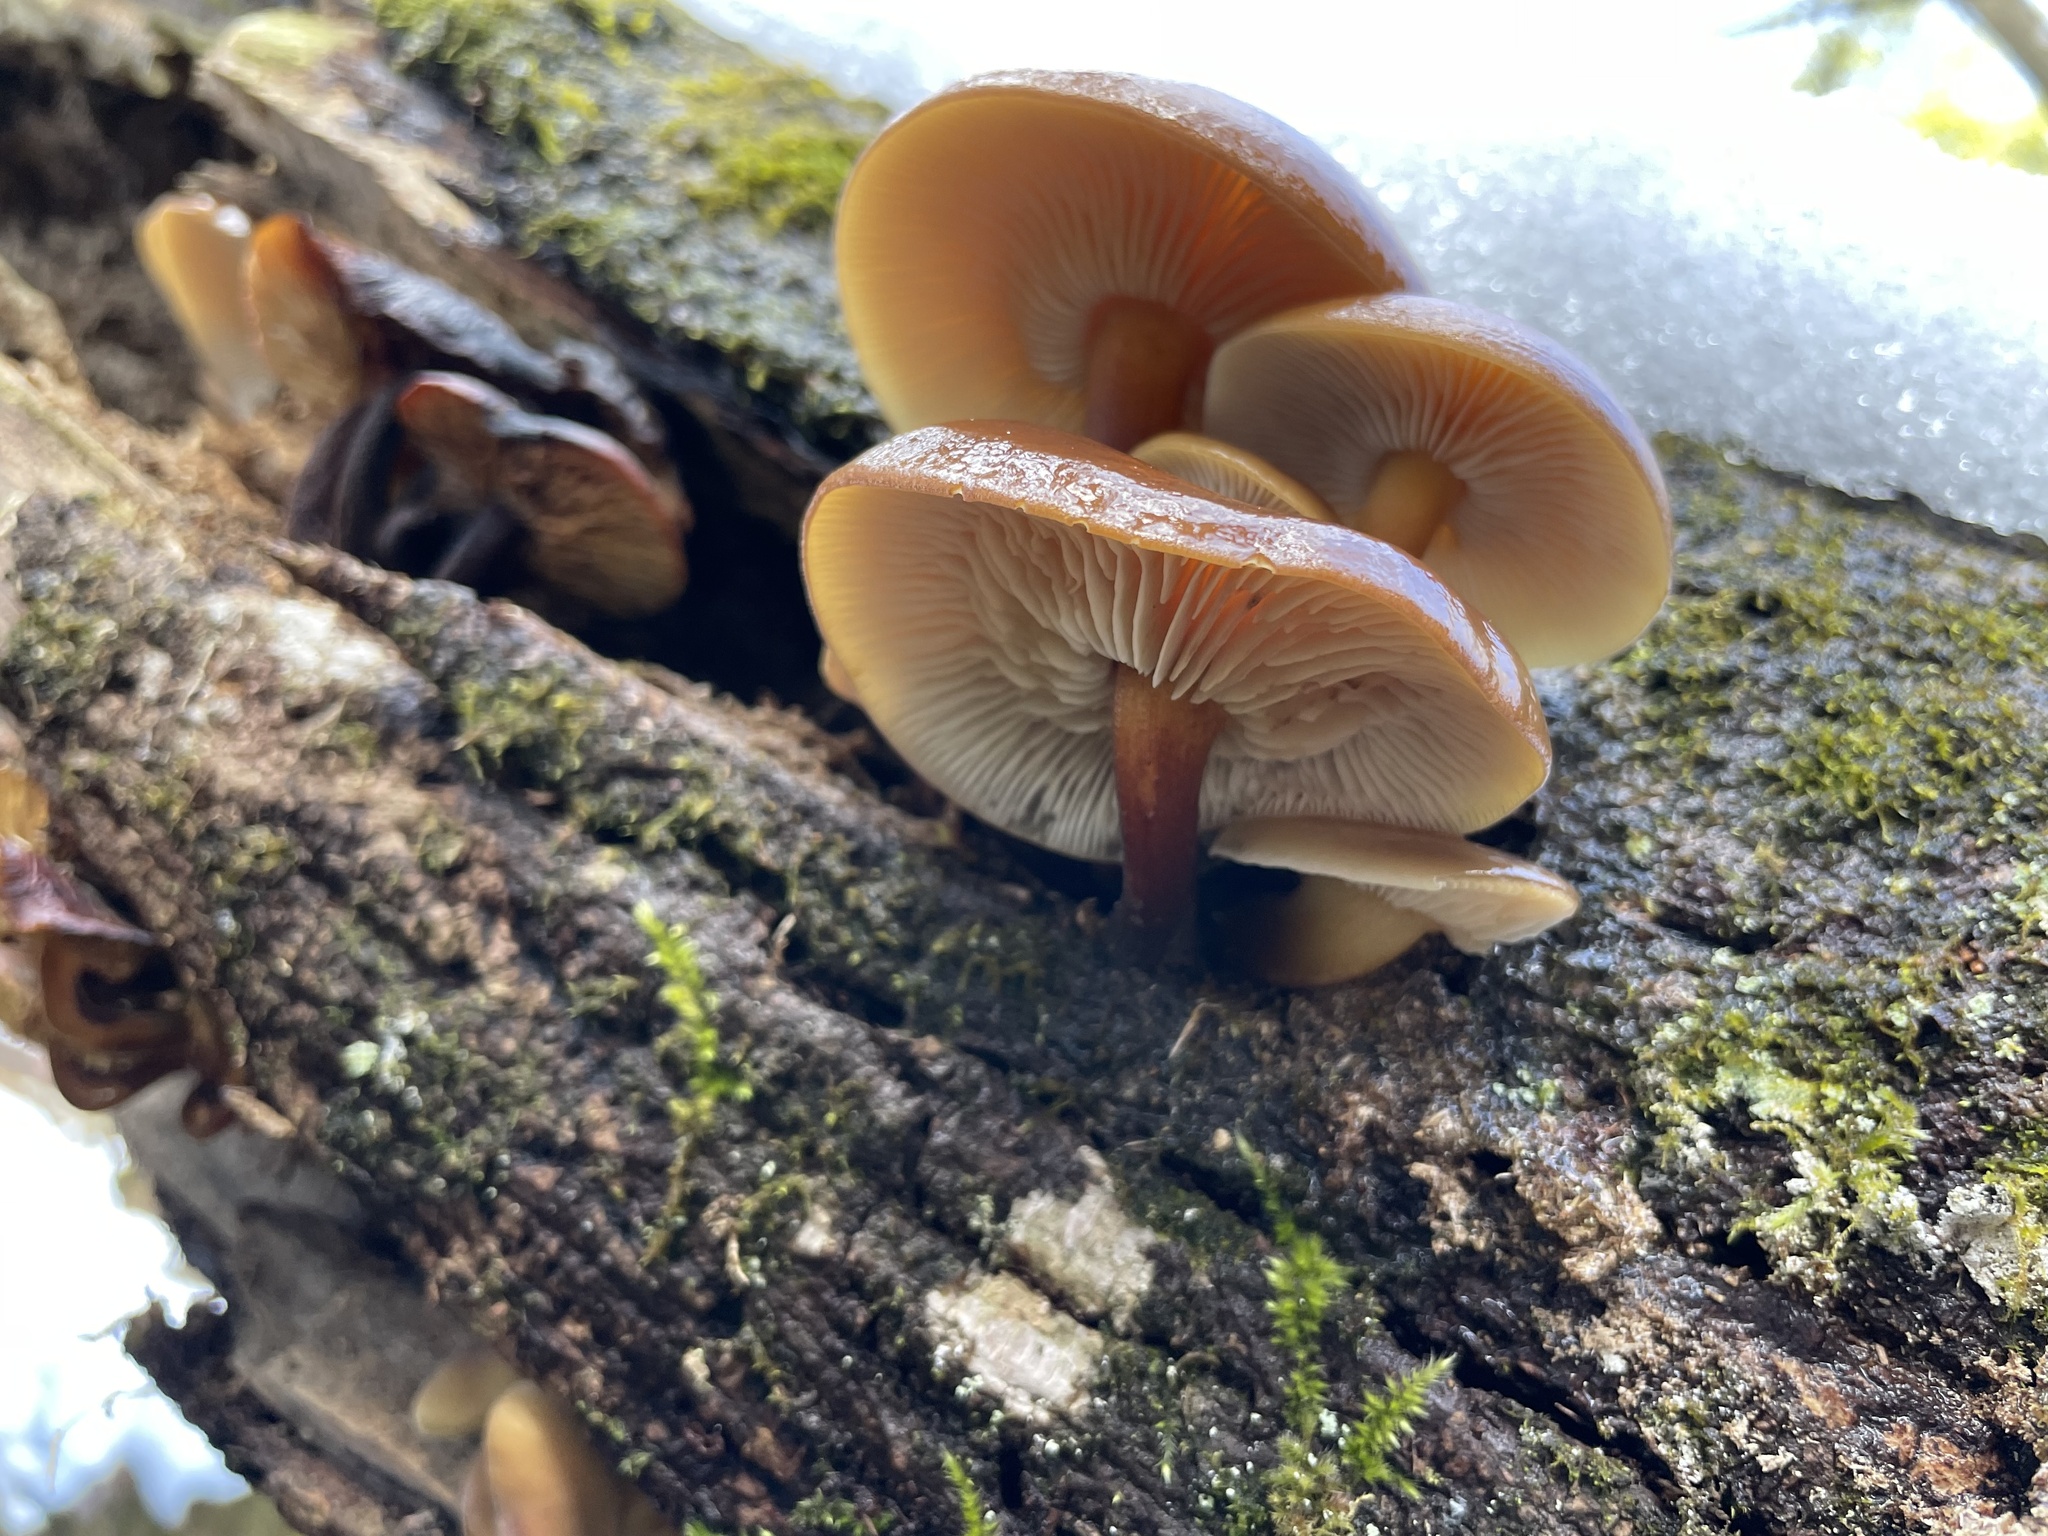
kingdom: Fungi
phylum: Basidiomycota
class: Agaricomycetes
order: Agaricales
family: Physalacriaceae
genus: Flammulina
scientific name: Flammulina velutipes
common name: Velvet shank
